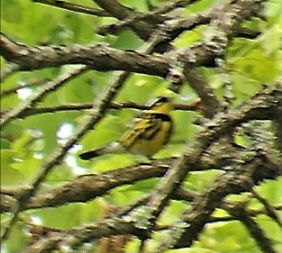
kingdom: Animalia
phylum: Chordata
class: Aves
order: Passeriformes
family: Parulidae
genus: Setophaga
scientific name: Setophaga magnolia
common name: Magnolia warbler
